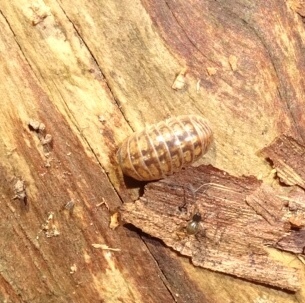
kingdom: Animalia
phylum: Arthropoda
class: Malacostraca
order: Isopoda
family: Armadillidiidae
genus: Armadillidium
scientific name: Armadillidium vulgare
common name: Common pill woodlouse
